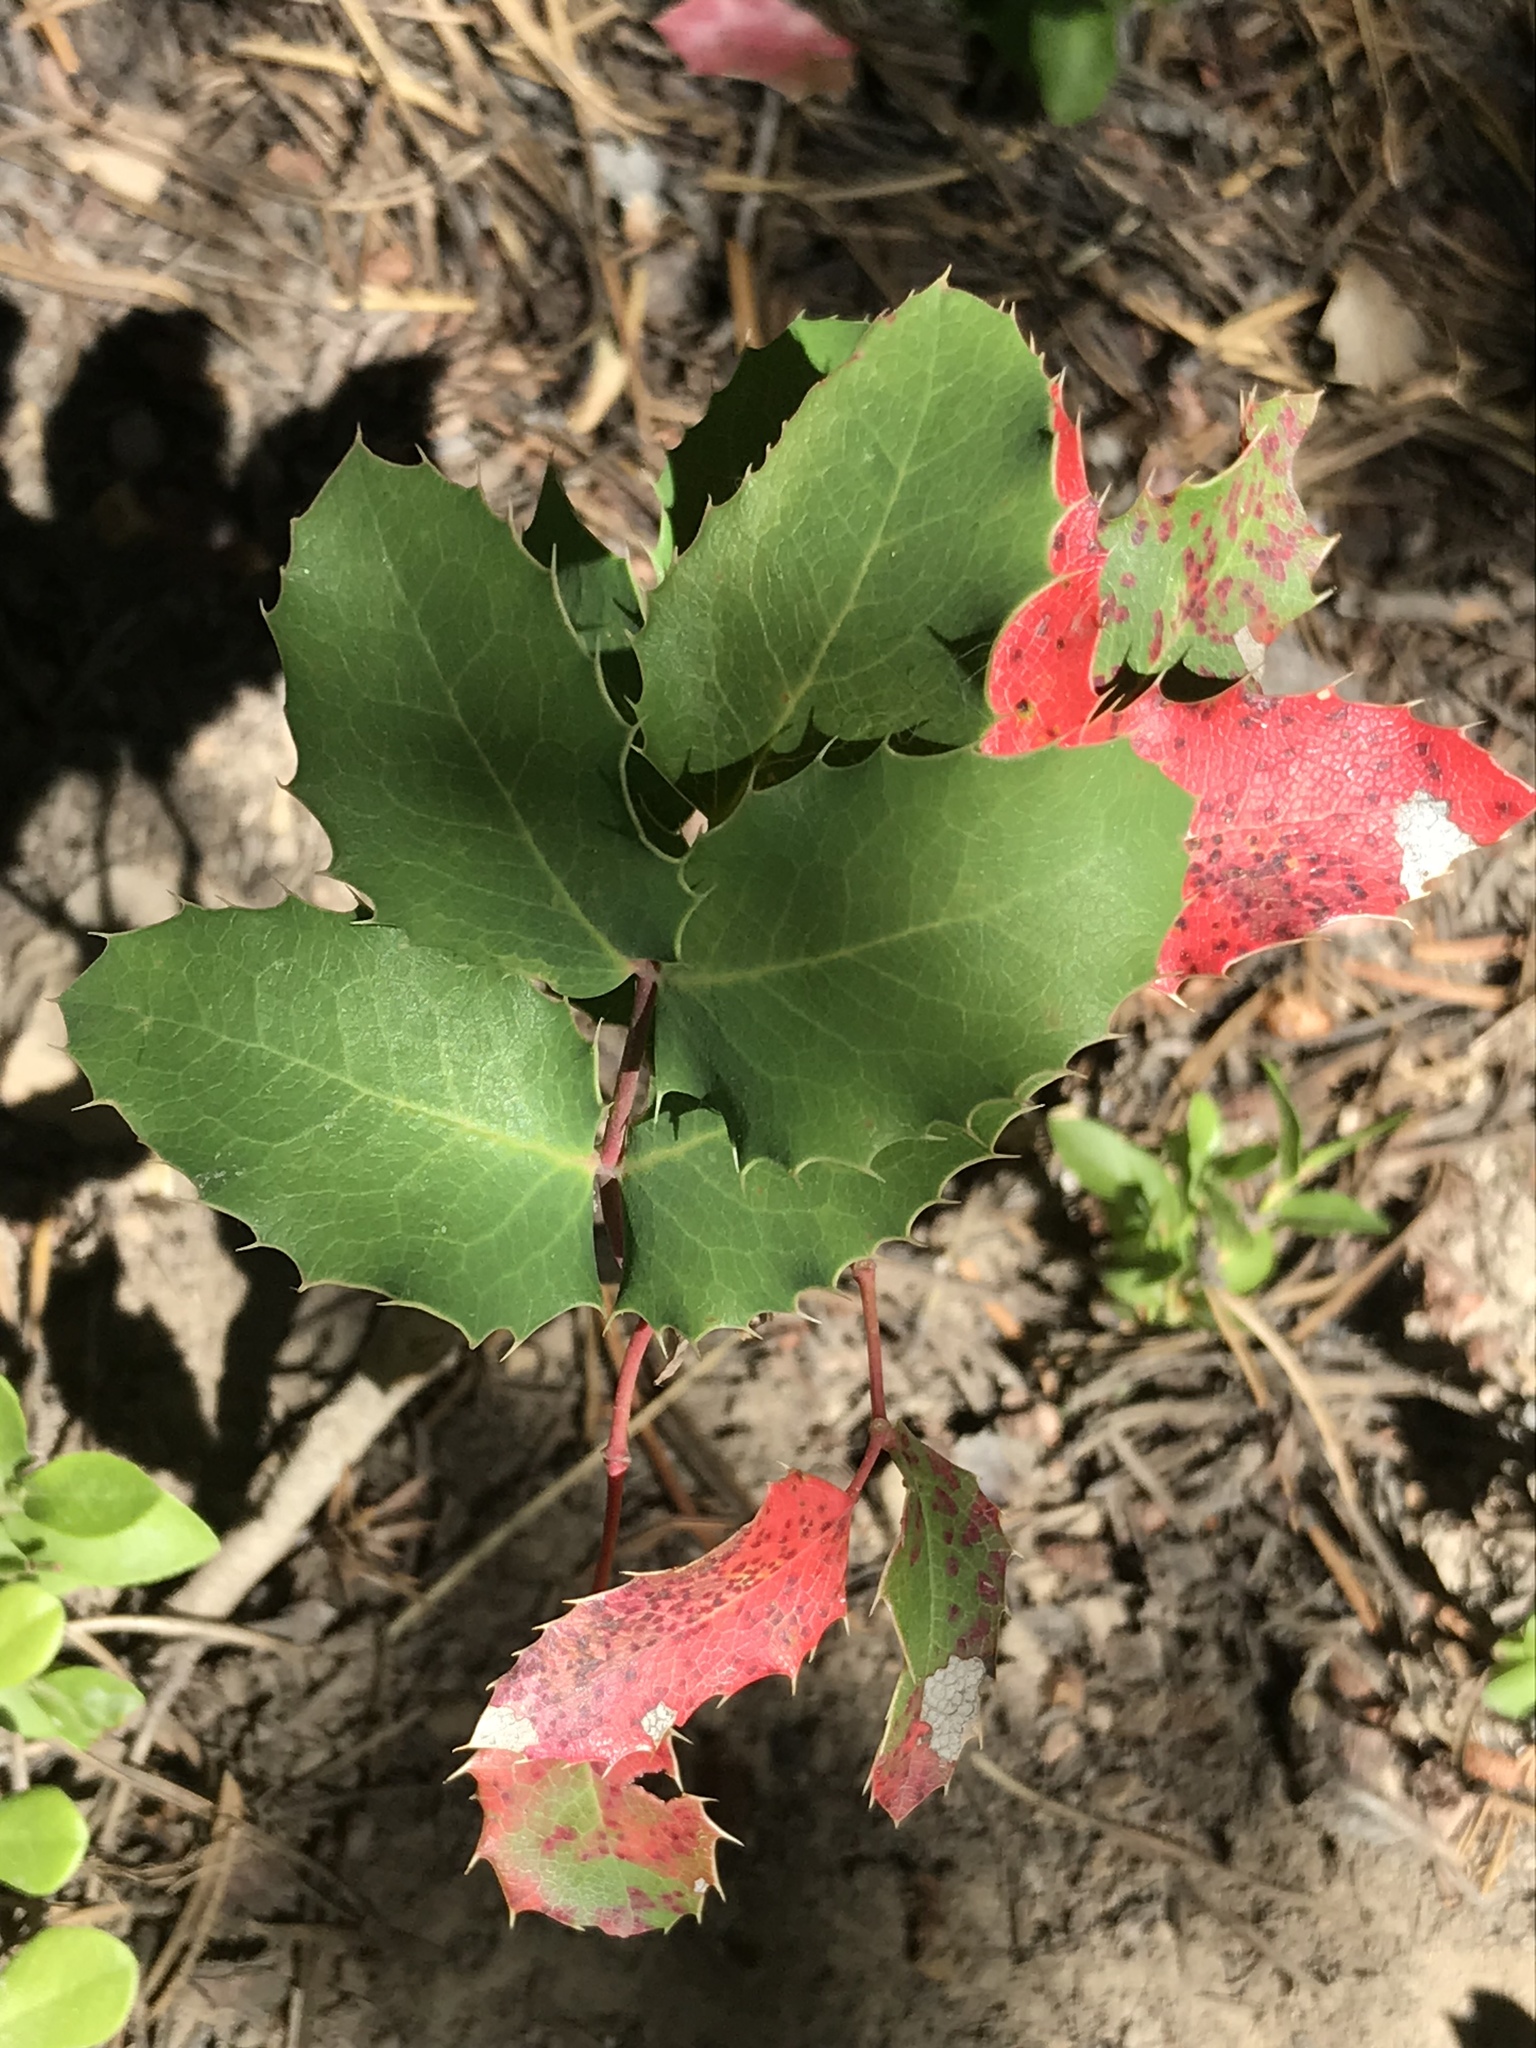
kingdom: Plantae
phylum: Tracheophyta
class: Magnoliopsida
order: Ranunculales
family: Berberidaceae
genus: Mahonia
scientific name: Mahonia repens
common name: Creeping oregon-grape
